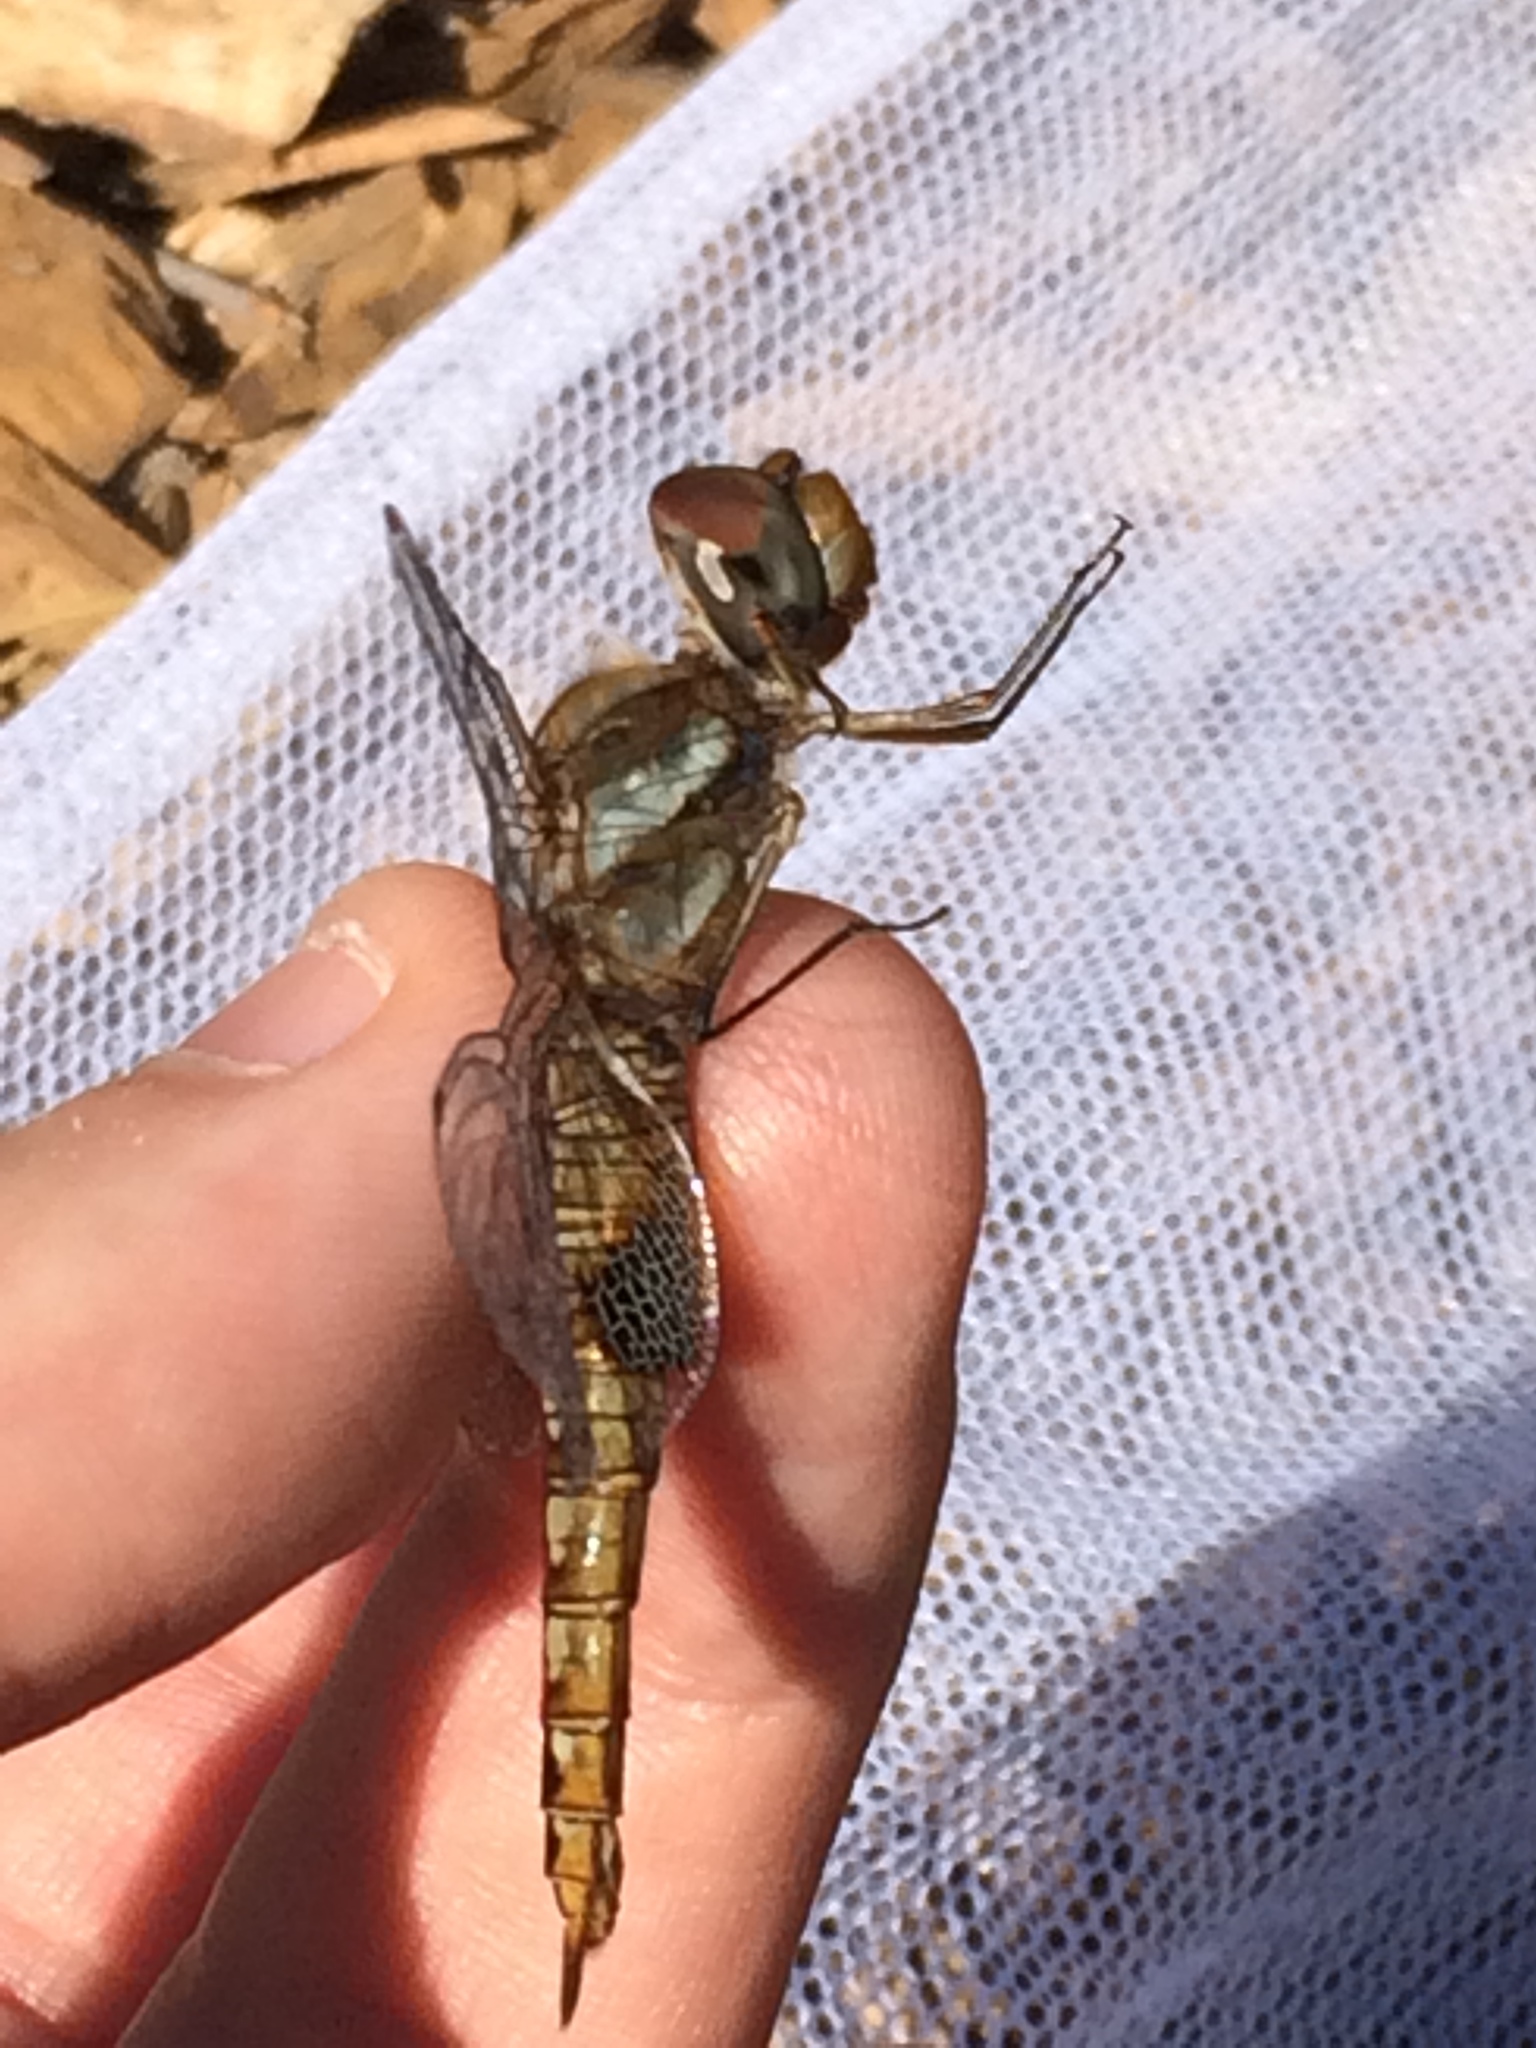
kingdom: Animalia
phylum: Arthropoda
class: Insecta
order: Odonata
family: Libellulidae
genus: Pantala
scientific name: Pantala hymenaea
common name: Spot-winged glider
